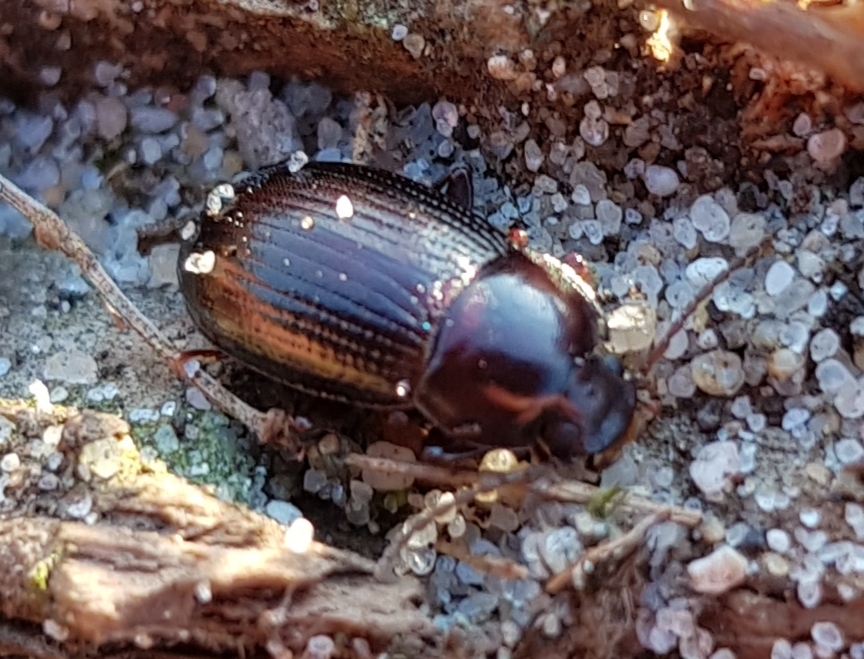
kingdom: Animalia
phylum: Arthropoda
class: Insecta
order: Coleoptera
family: Tenebrionidae
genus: Nalassus
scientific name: Nalassus laevioctostriatus
